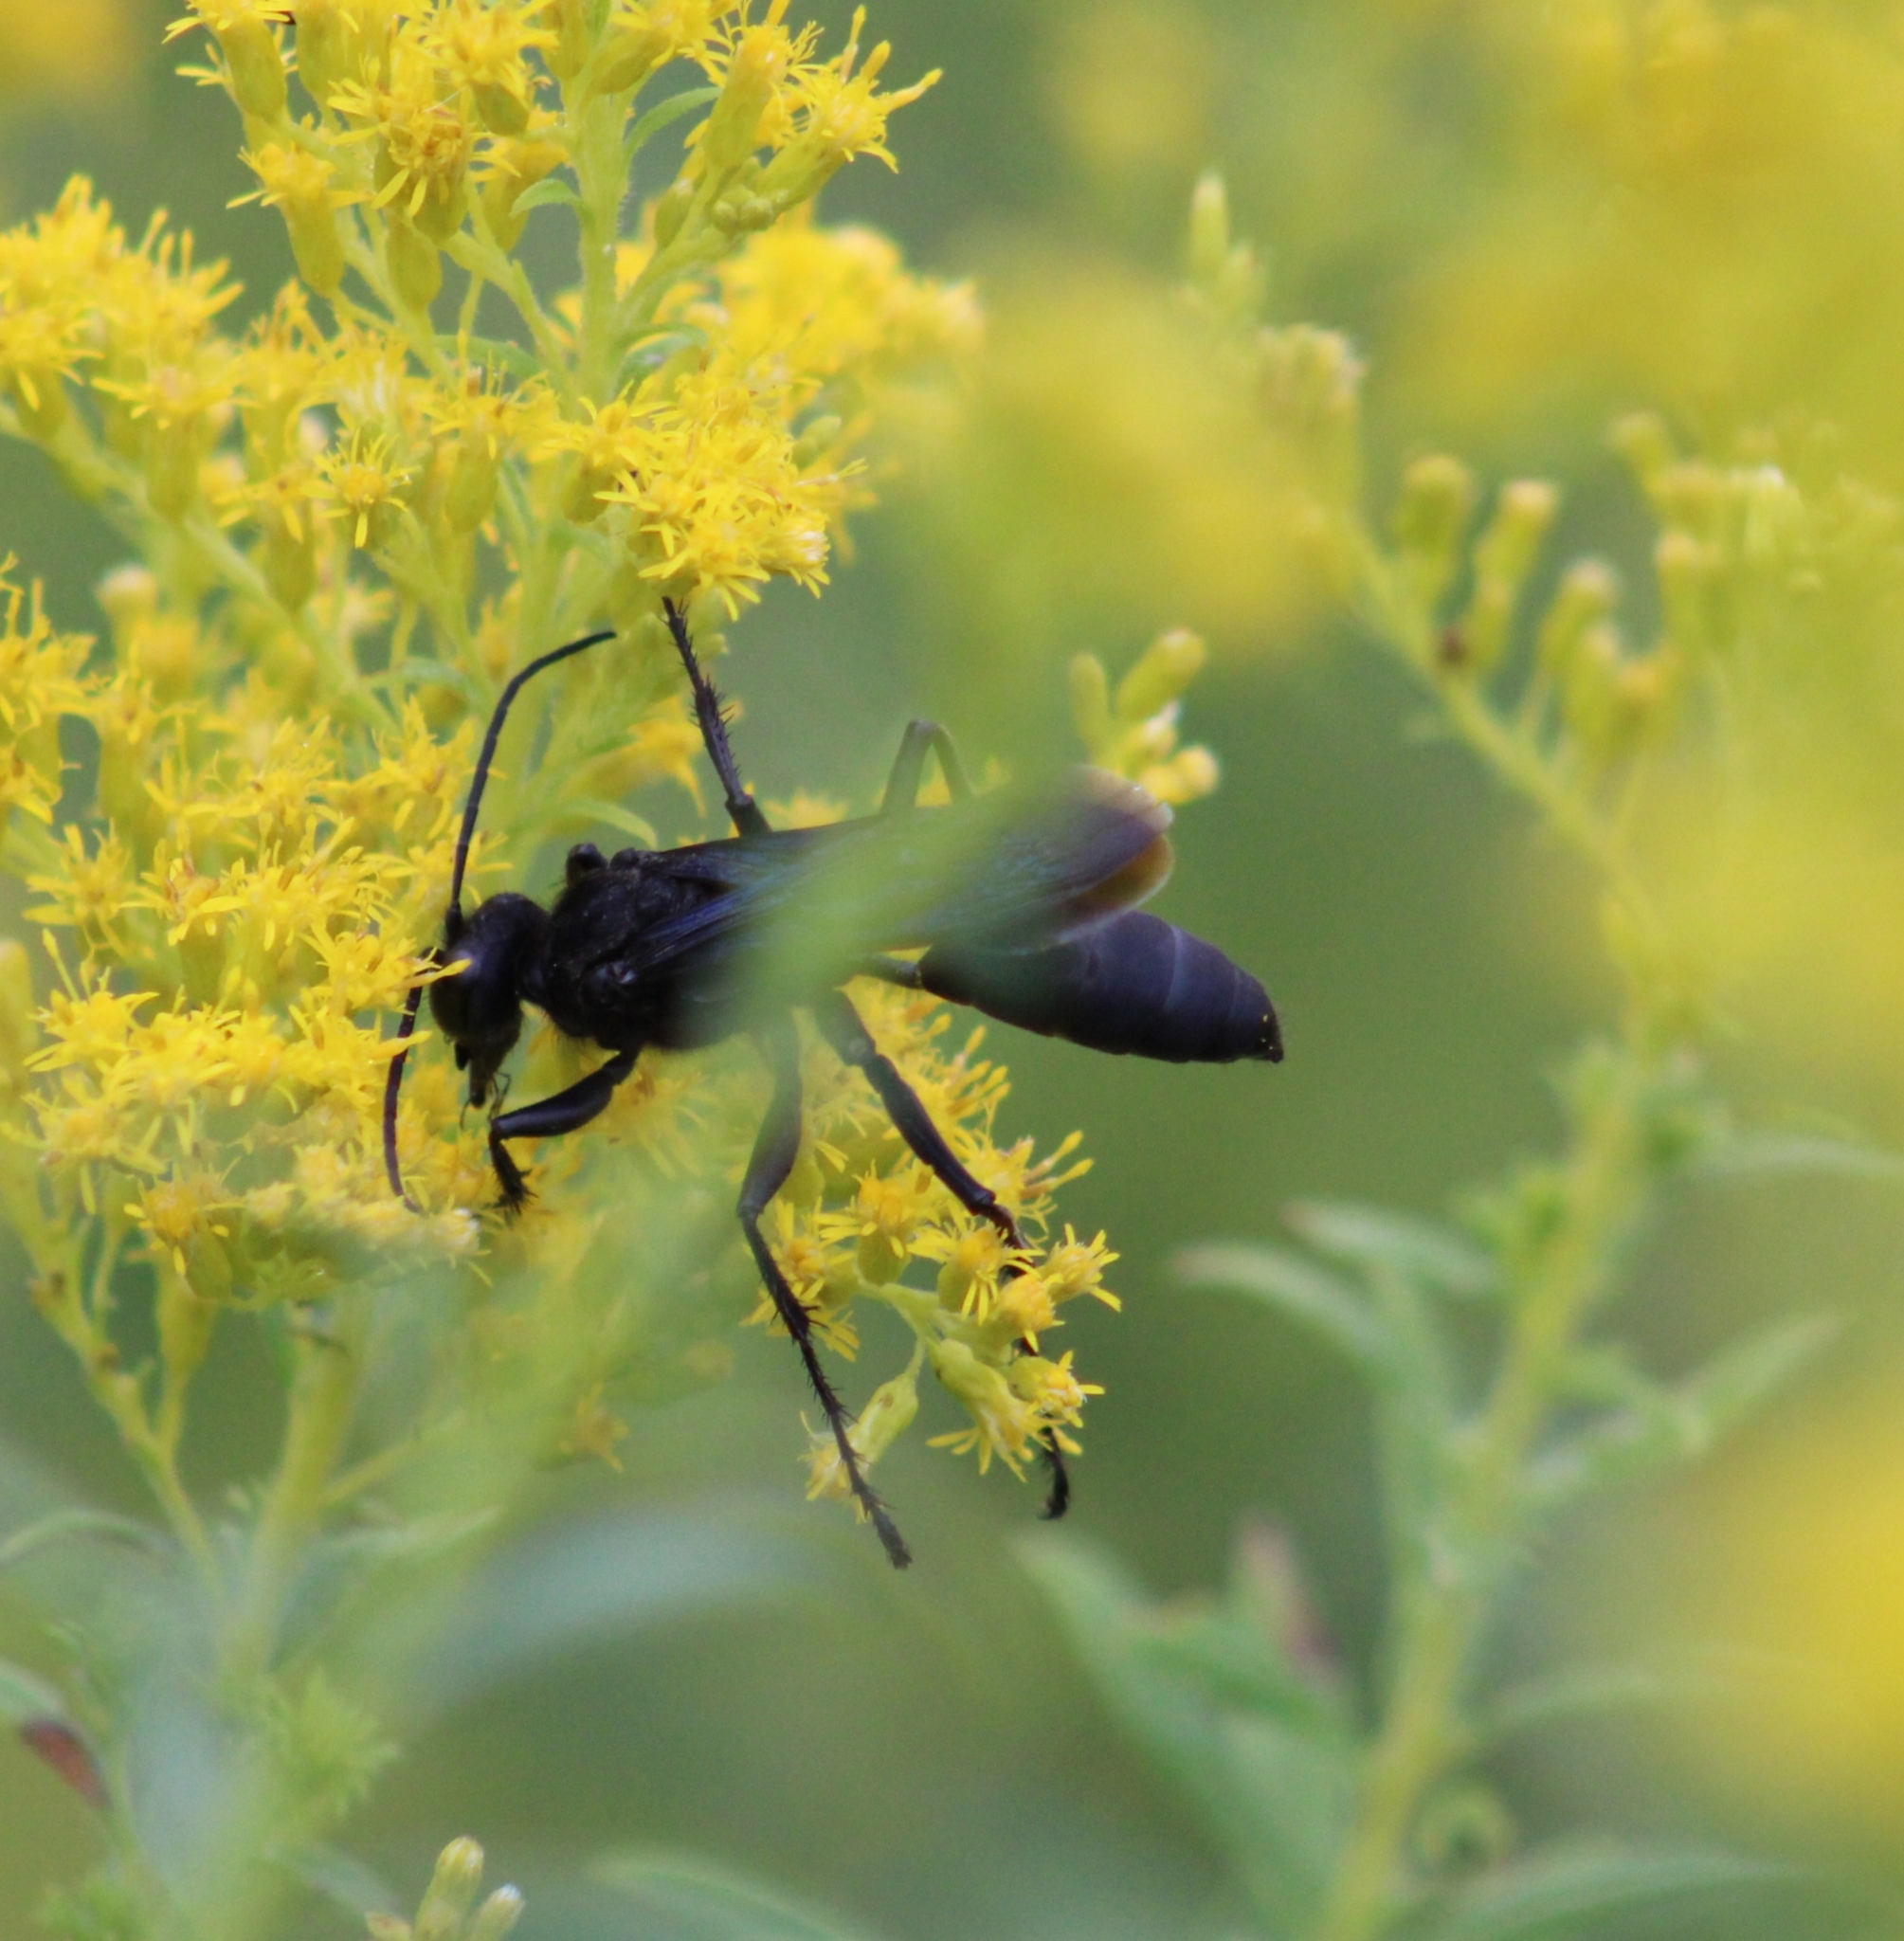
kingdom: Animalia
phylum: Arthropoda
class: Insecta
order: Hymenoptera
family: Sphecidae
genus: Sphex
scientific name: Sphex pensylvanicus
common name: Great black digger wasp
